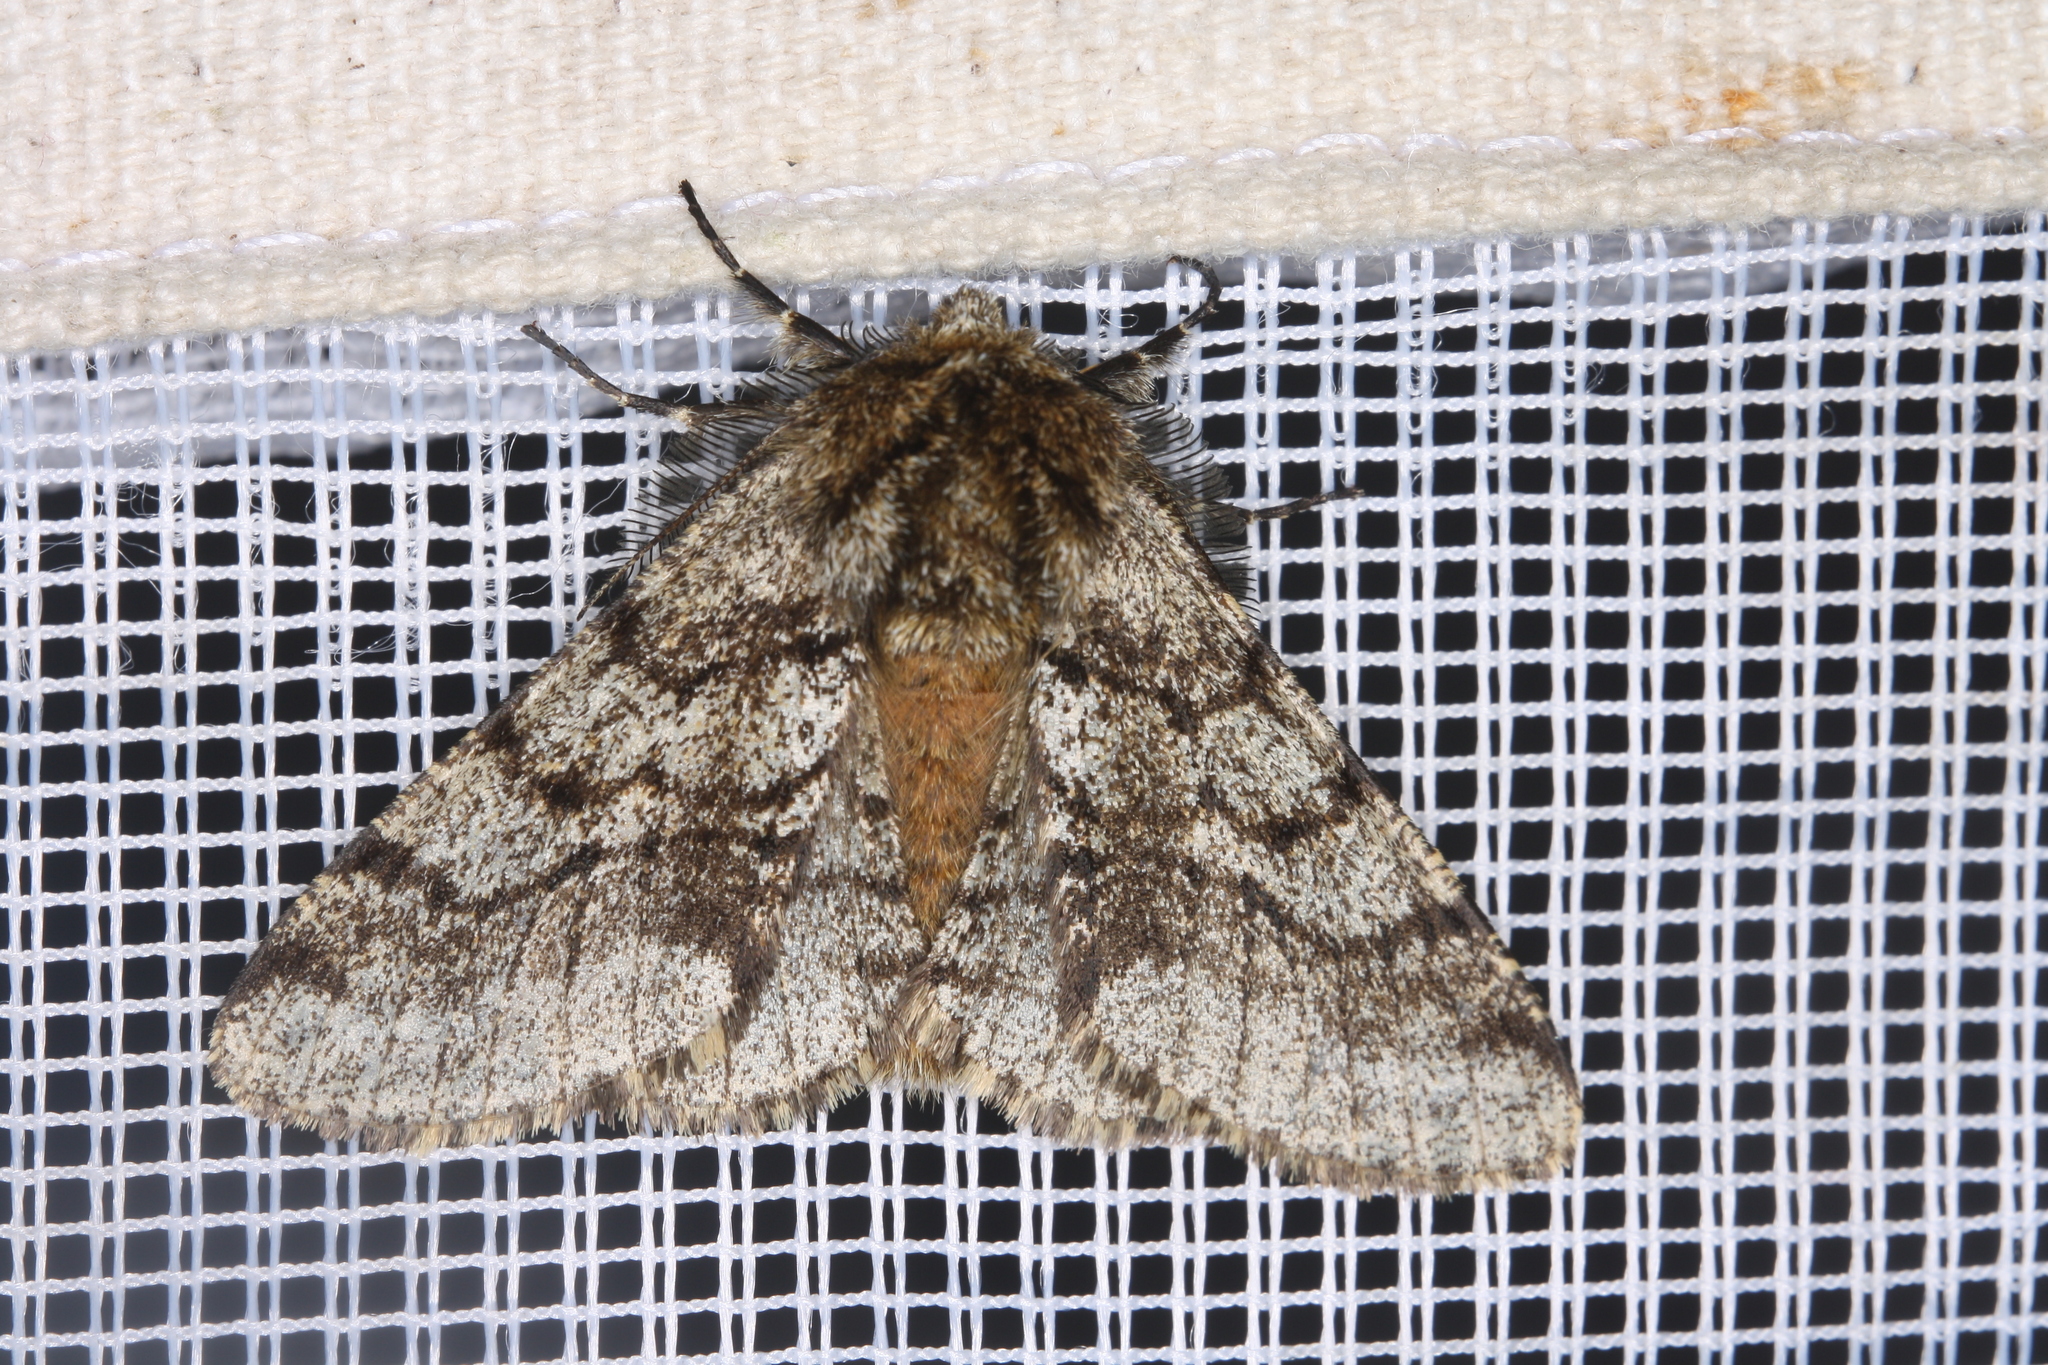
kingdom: Animalia
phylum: Arthropoda
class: Insecta
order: Lepidoptera
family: Geometridae
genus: Lycia
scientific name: Lycia hirtaria
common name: Brindled beauty
